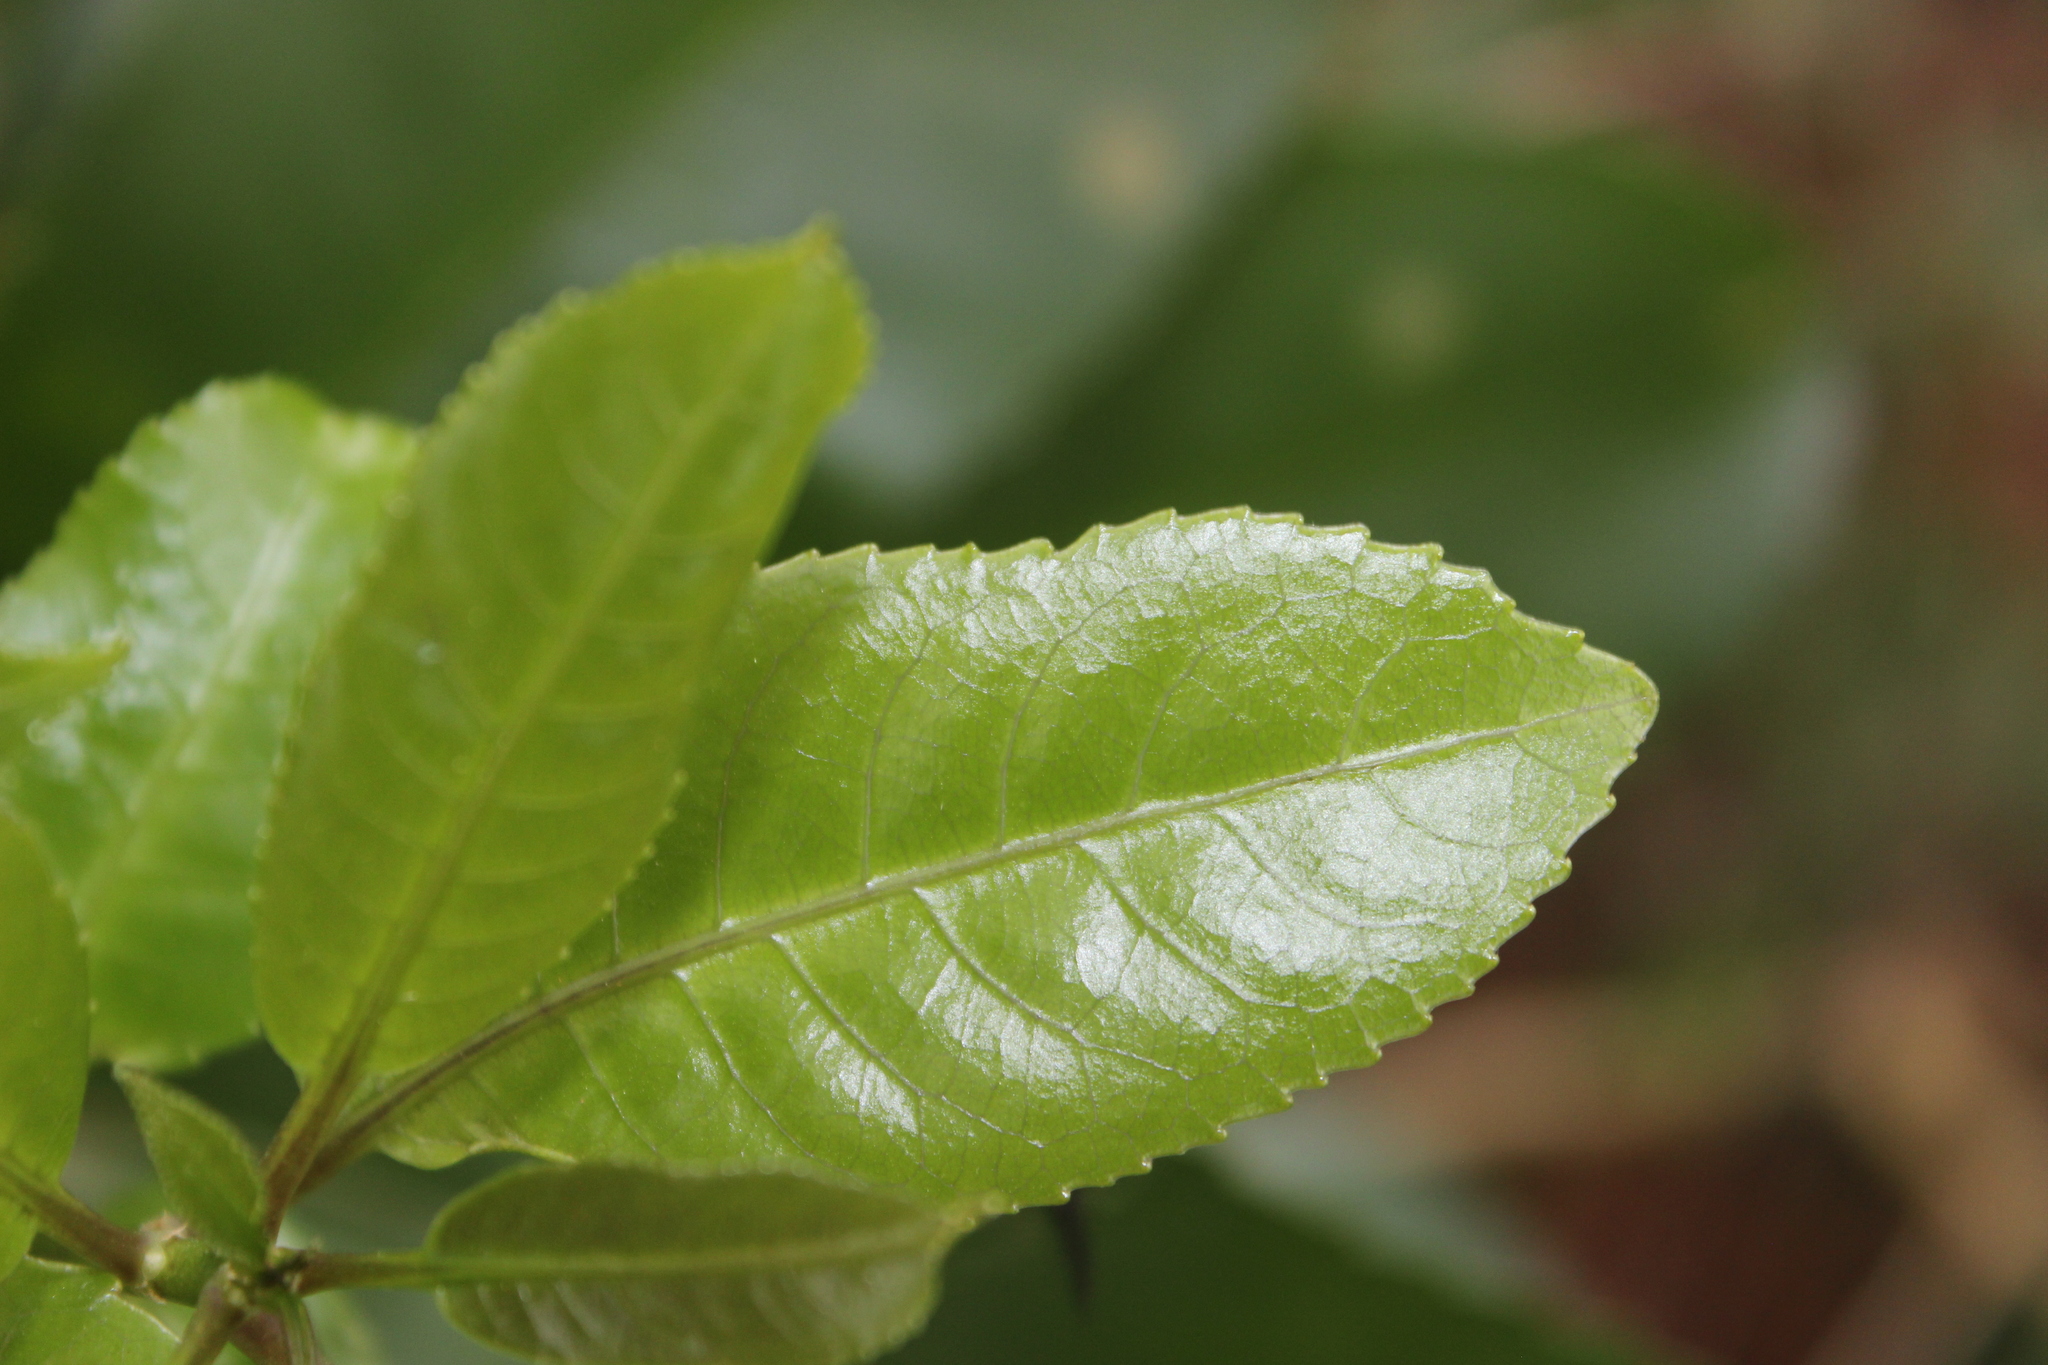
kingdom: Plantae
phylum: Tracheophyta
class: Magnoliopsida
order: Malpighiales
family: Violaceae
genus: Melicytus
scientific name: Melicytus ramiflorus
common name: Mahoe
